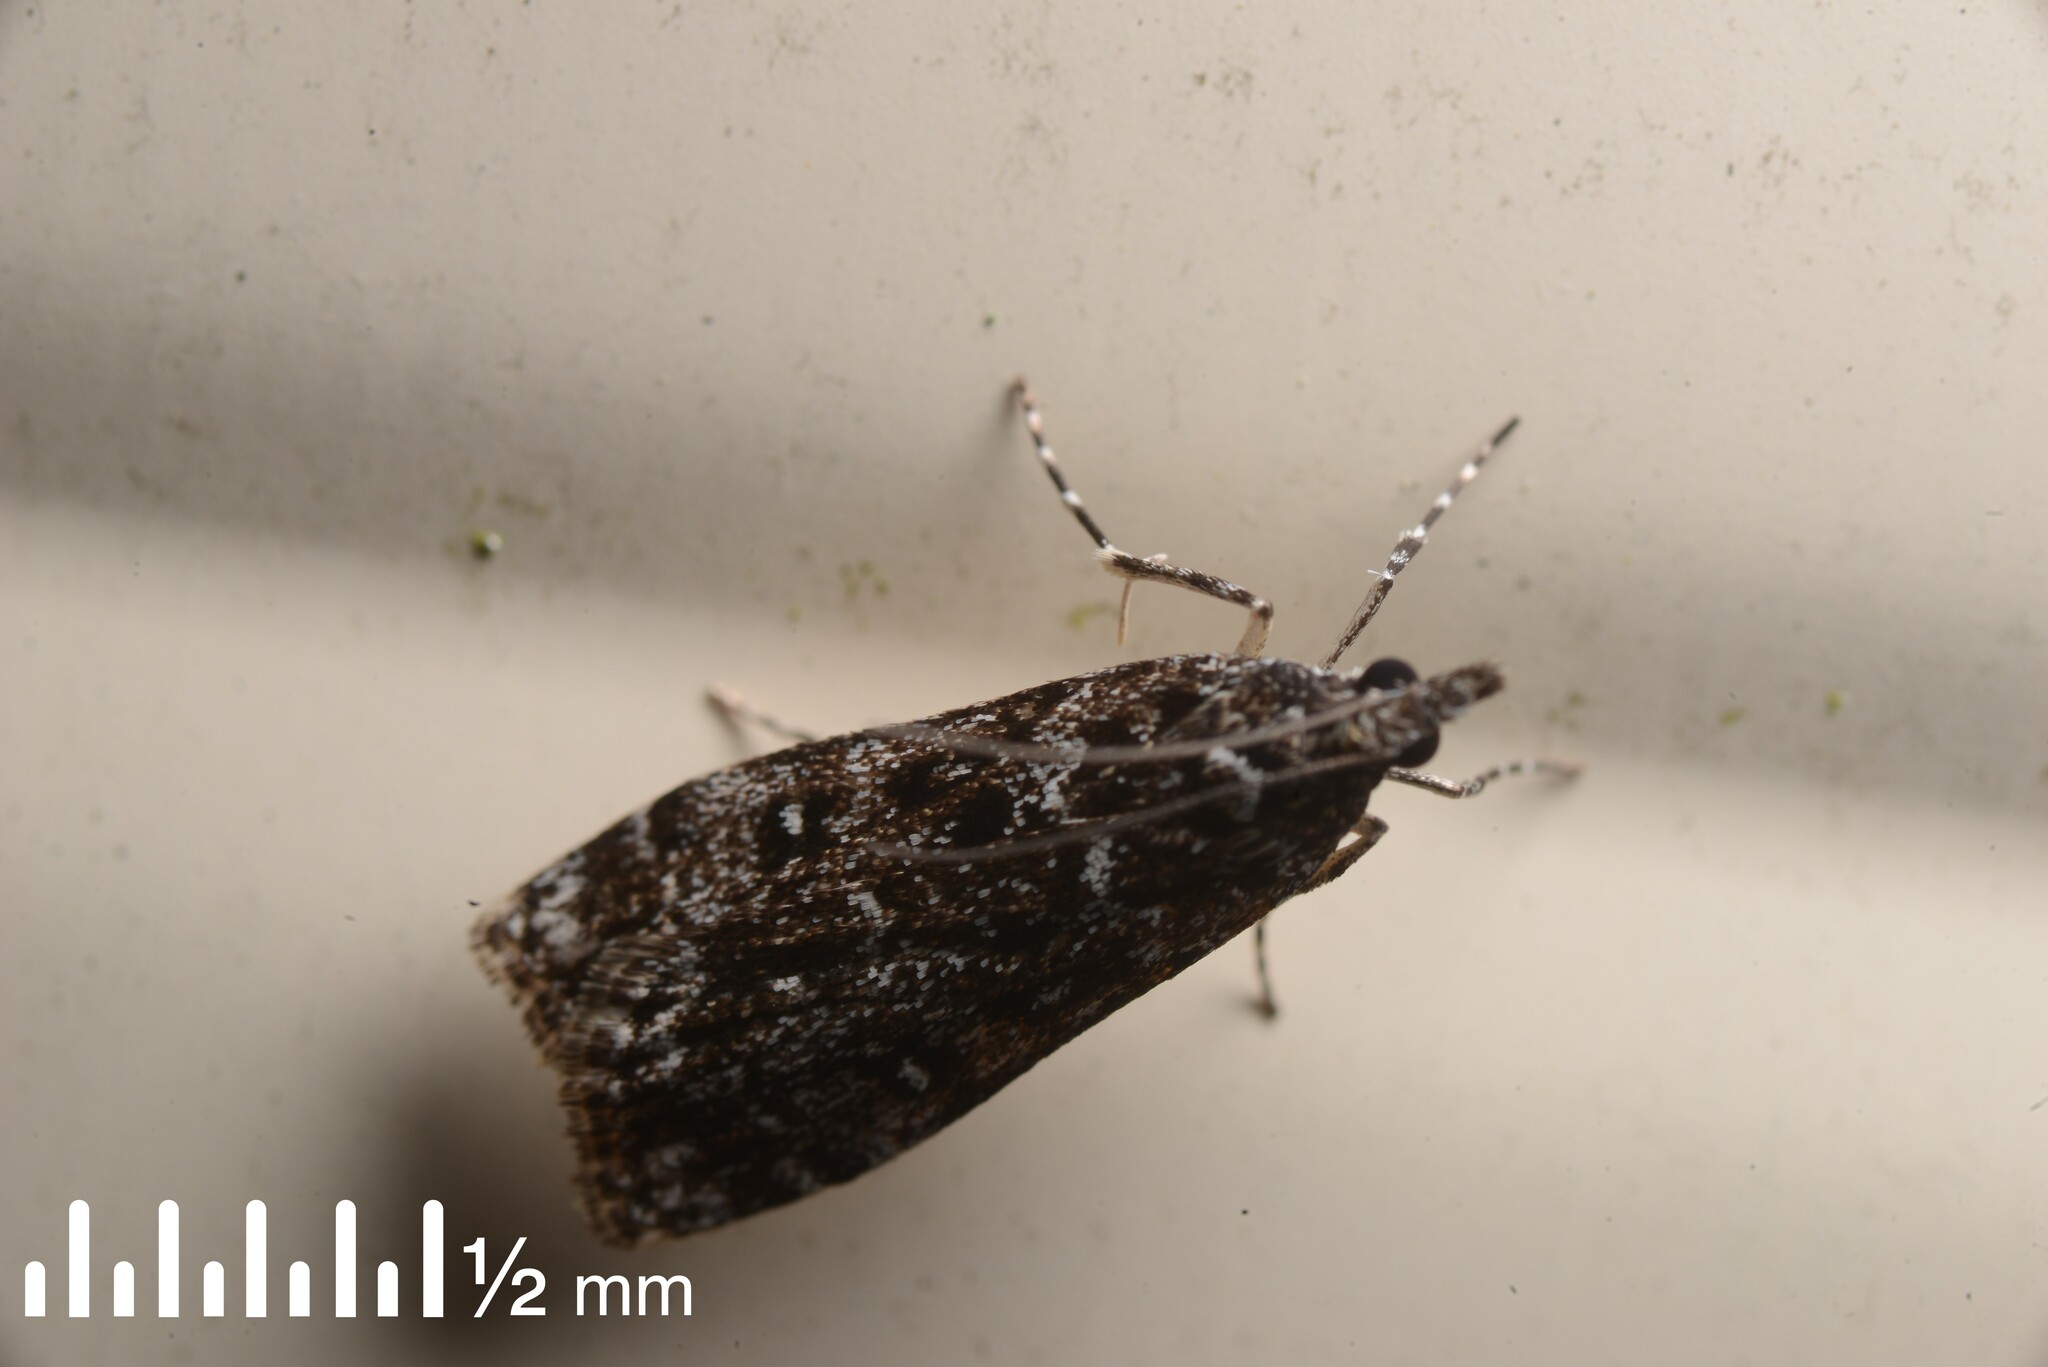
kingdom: Animalia
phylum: Arthropoda
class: Insecta
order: Lepidoptera
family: Crambidae
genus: Eudonia
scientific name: Eudonia philerga
